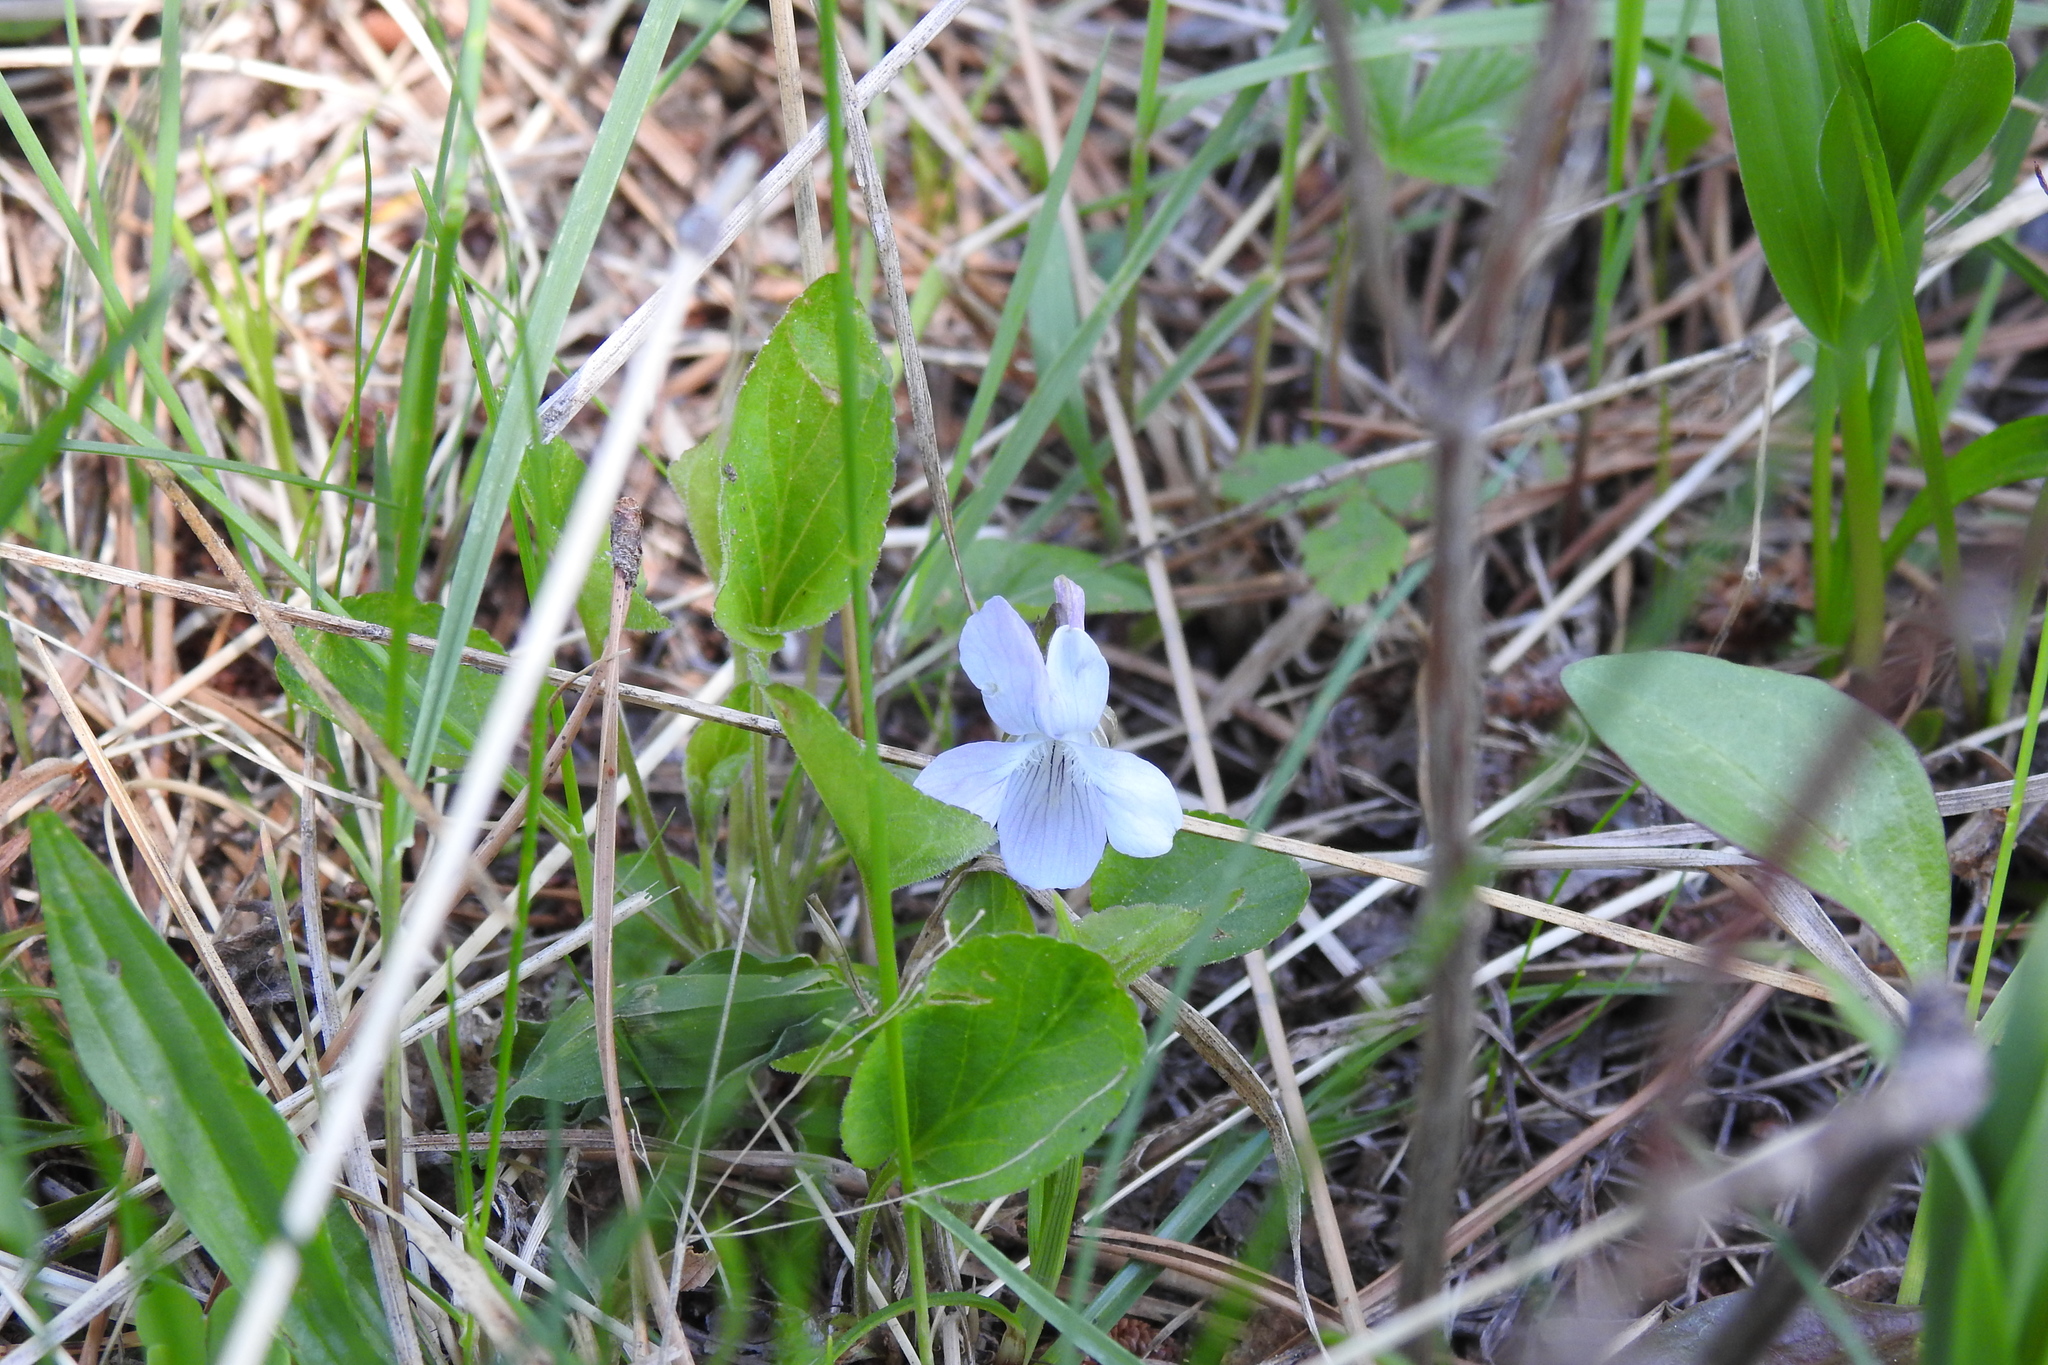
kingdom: Plantae
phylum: Tracheophyta
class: Magnoliopsida
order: Malpighiales
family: Violaceae
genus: Viola
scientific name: Viola adunca
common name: Sand violet
